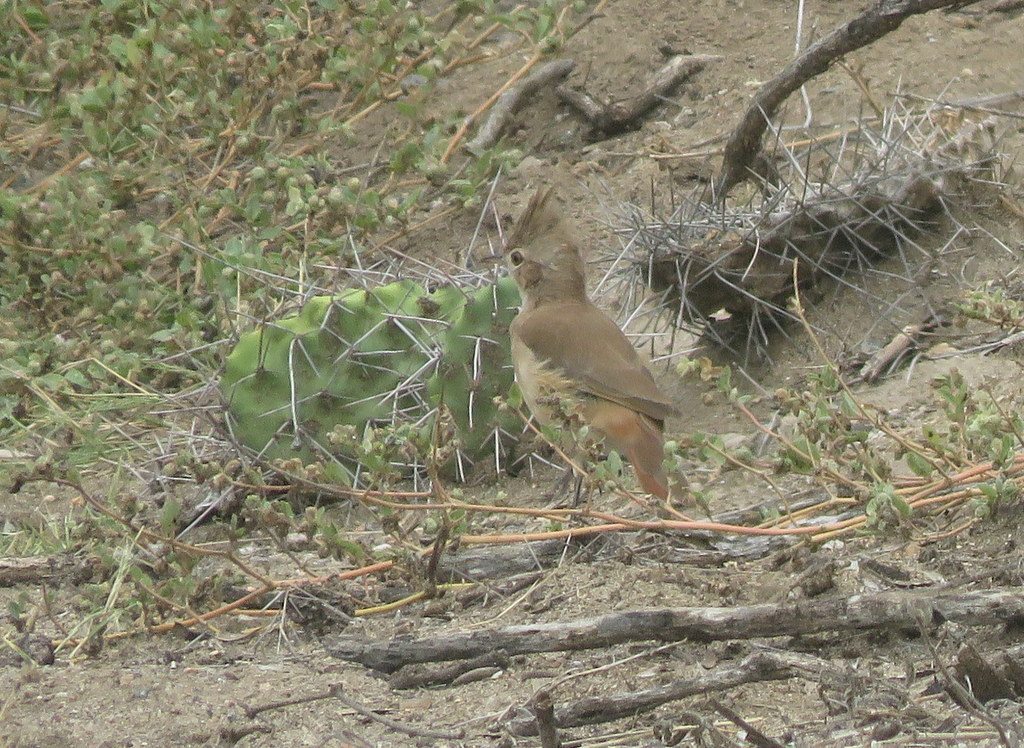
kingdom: Animalia
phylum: Chordata
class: Aves
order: Passeriformes
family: Furnariidae
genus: Furnarius
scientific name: Furnarius cristatus
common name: Crested hornero
